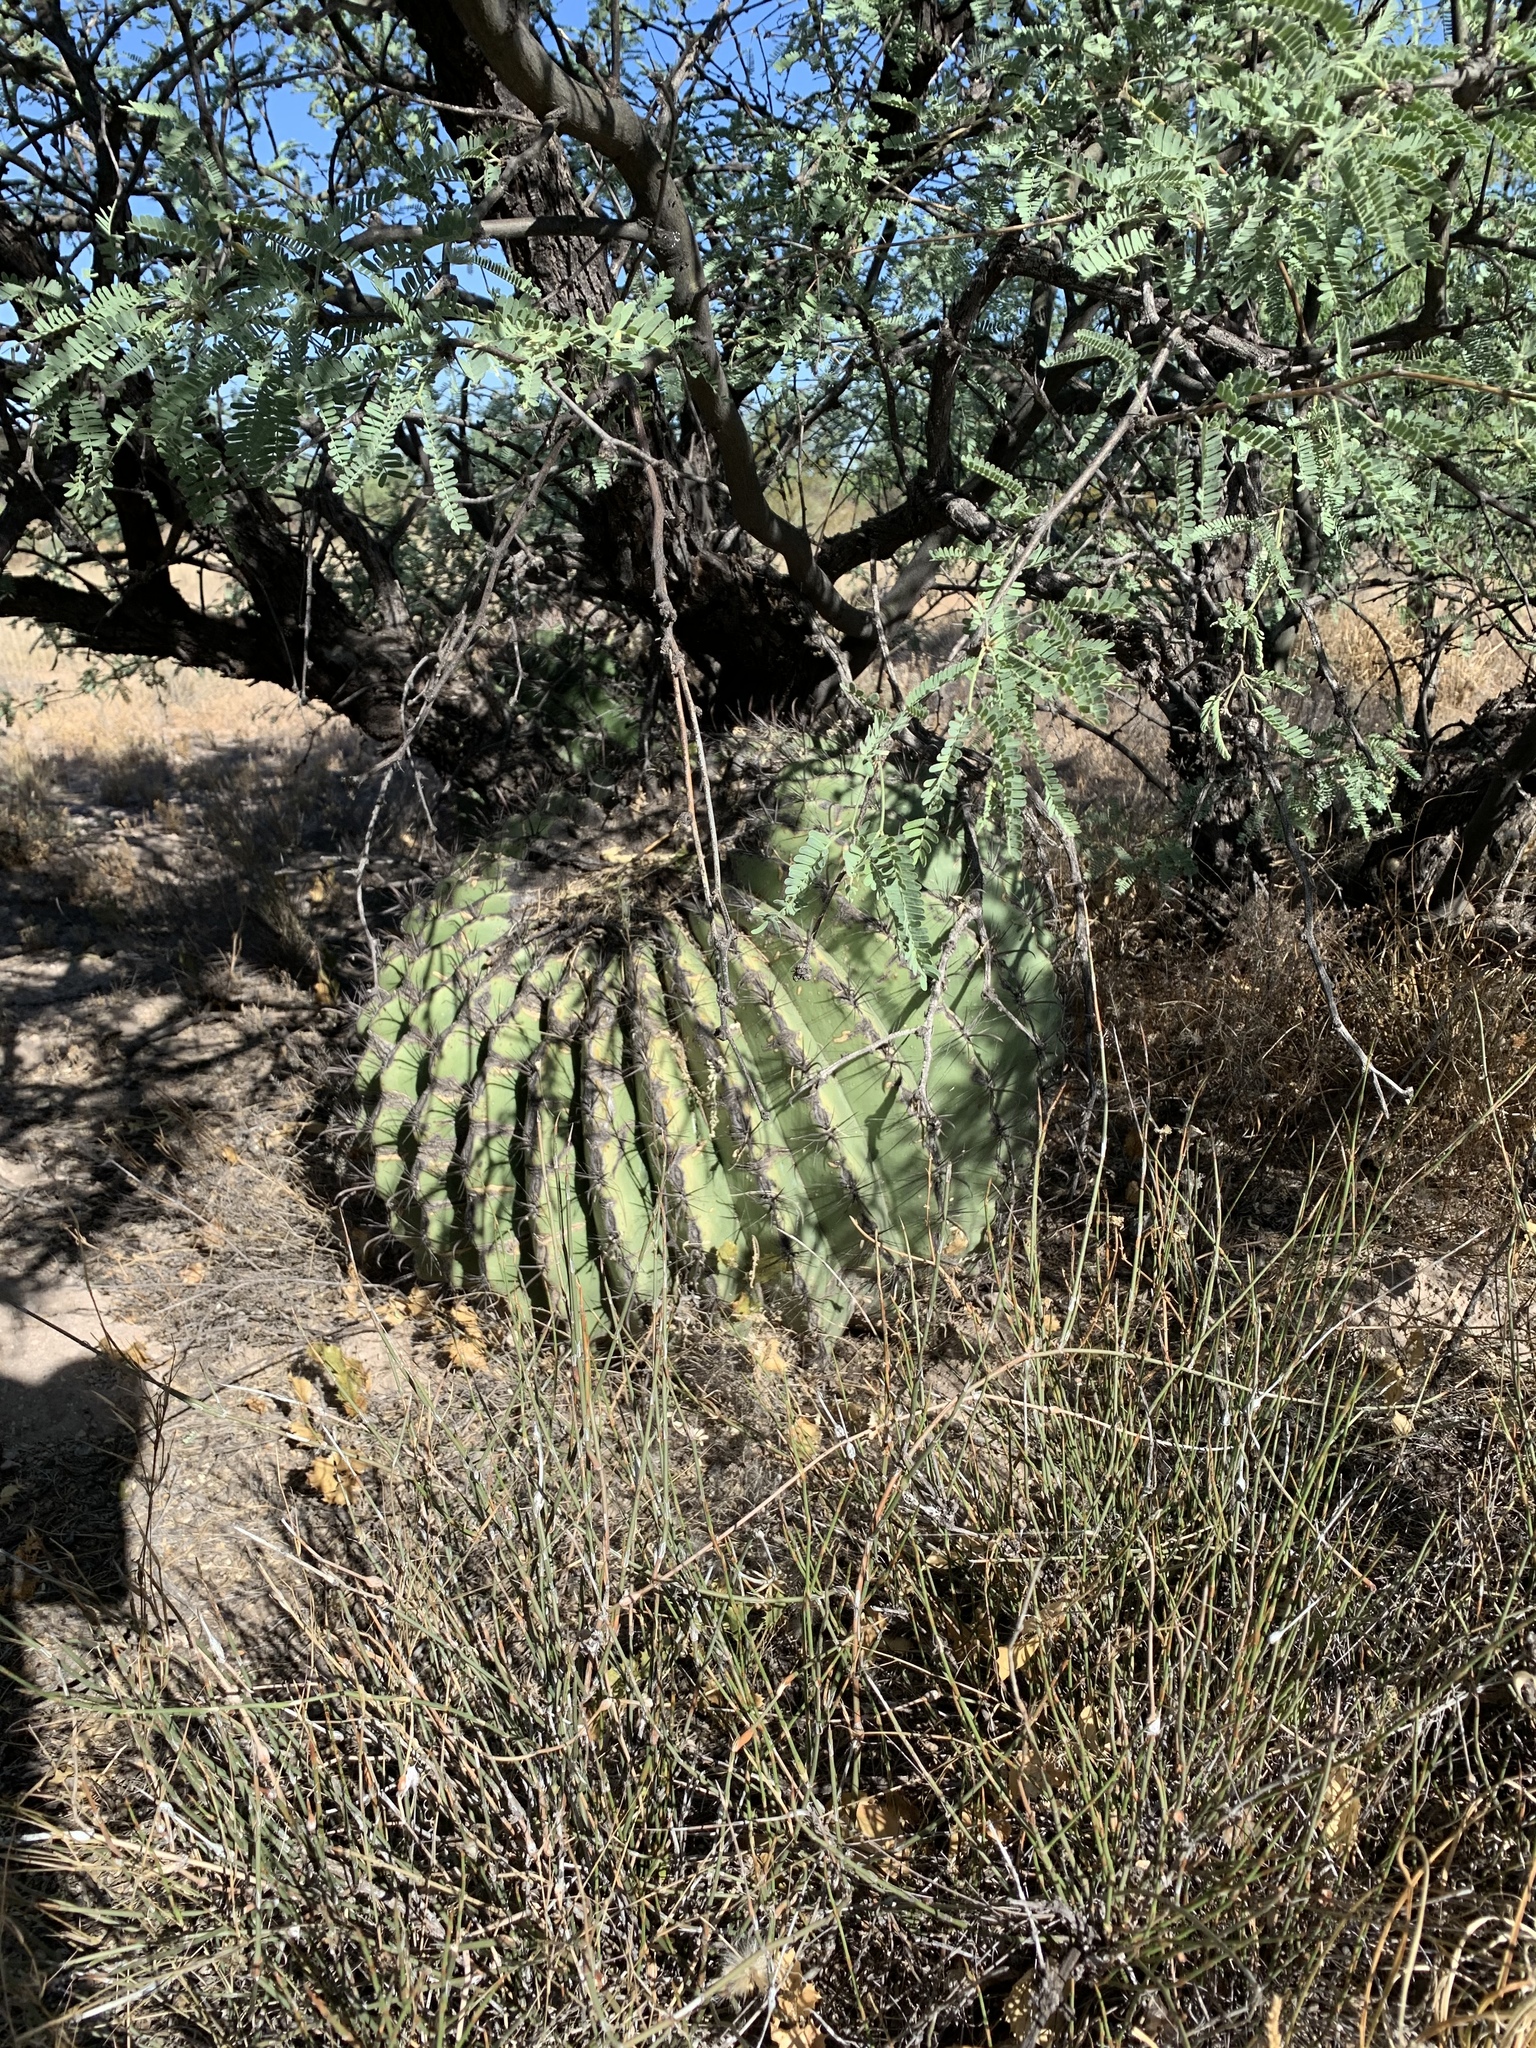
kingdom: Plantae
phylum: Tracheophyta
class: Magnoliopsida
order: Caryophyllales
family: Cactaceae
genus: Ferocactus
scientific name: Ferocactus wislizeni
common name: Candy barrel cactus
